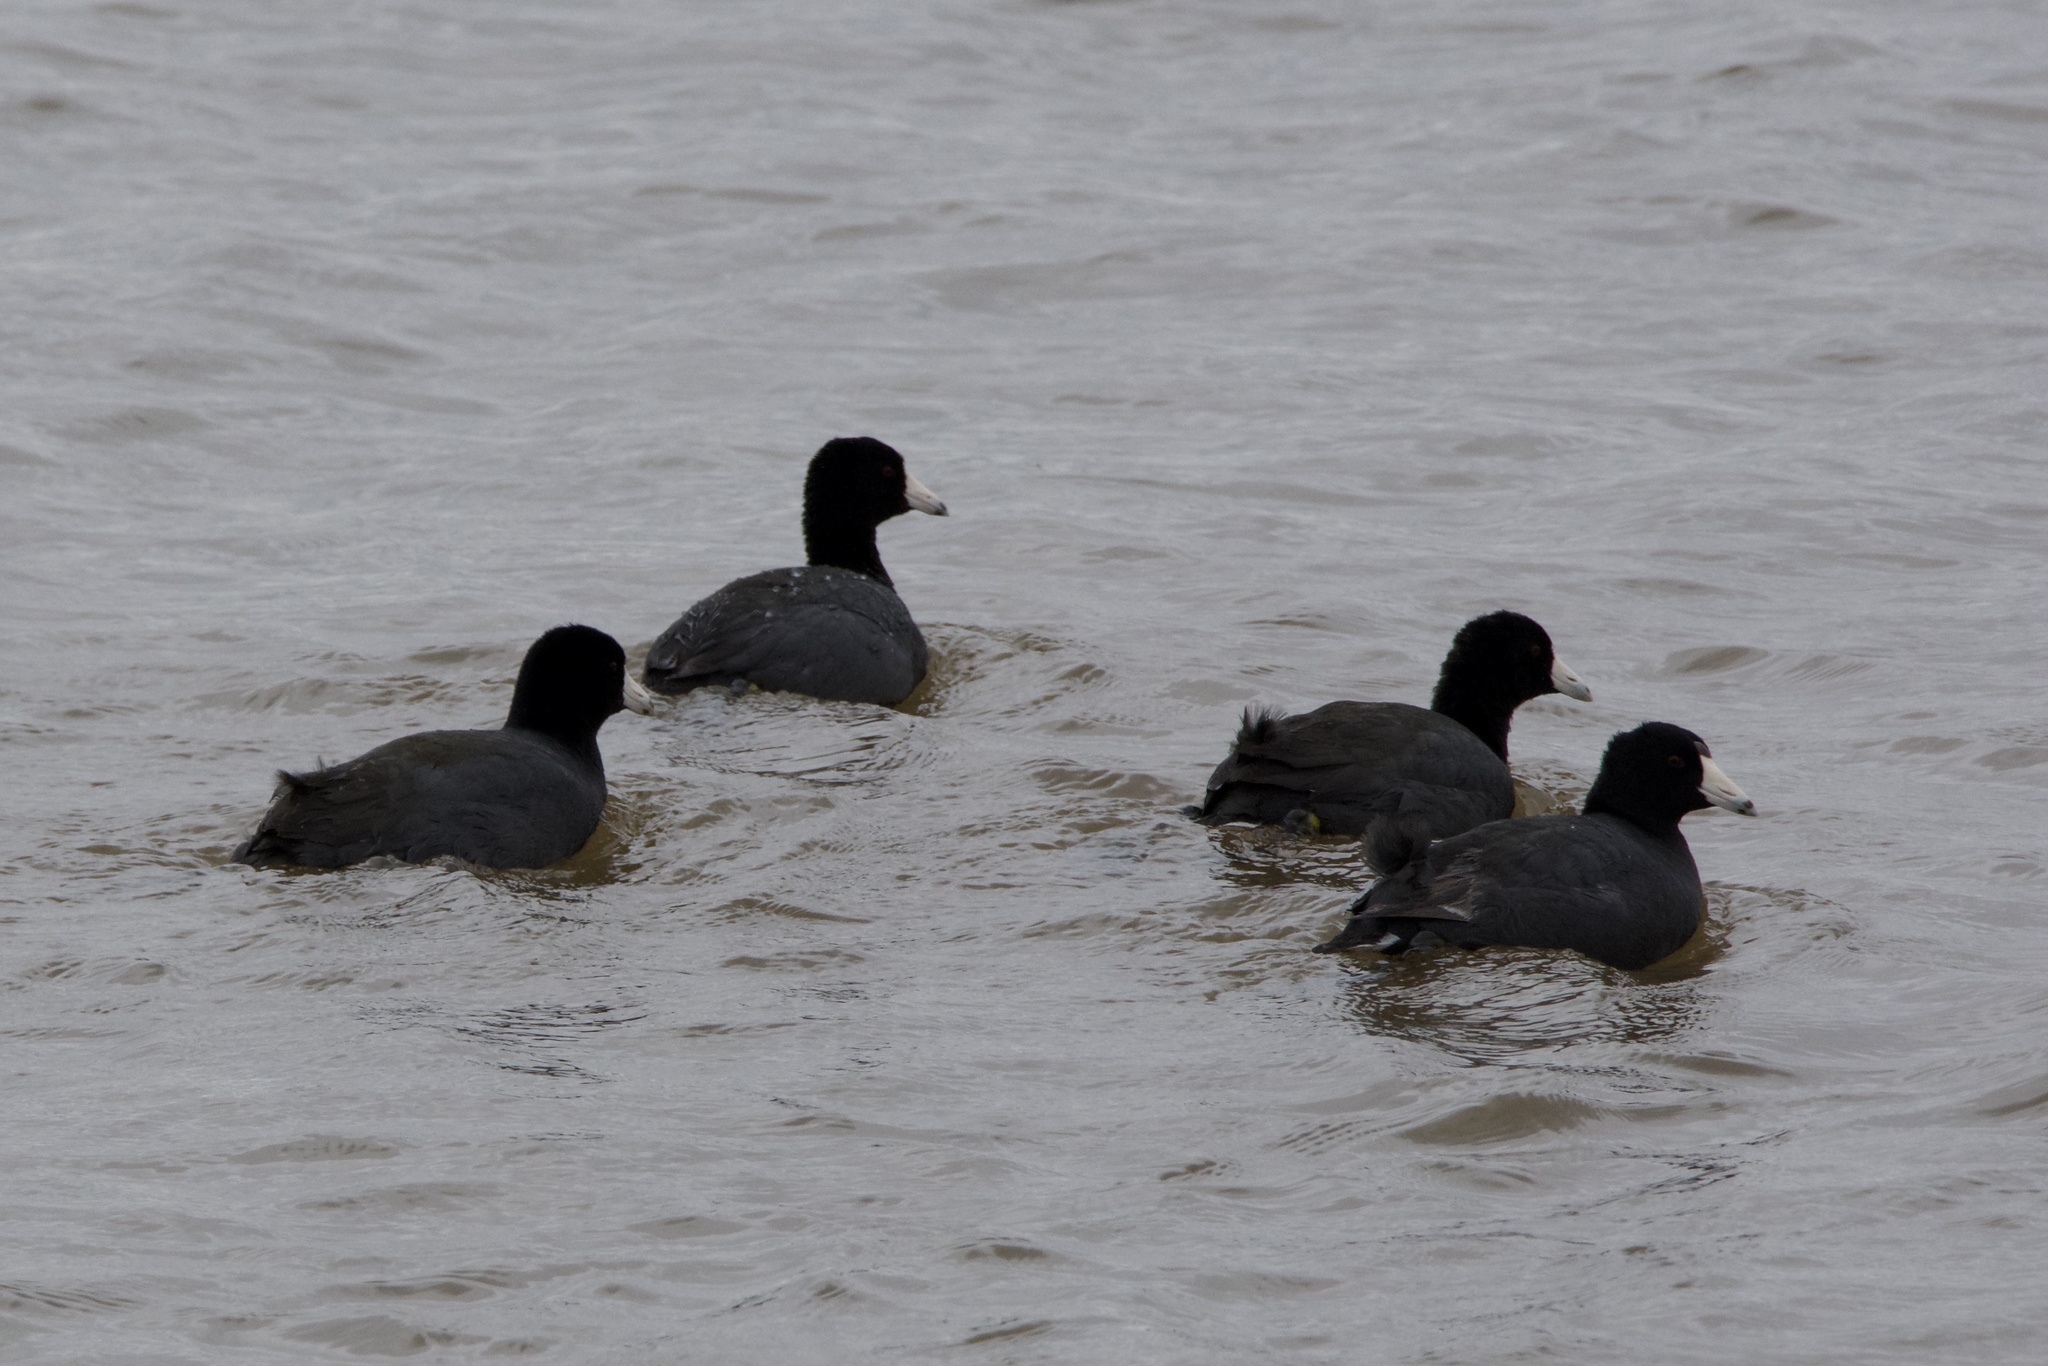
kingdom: Animalia
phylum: Chordata
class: Aves
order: Gruiformes
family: Rallidae
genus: Fulica
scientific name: Fulica americana
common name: American coot
